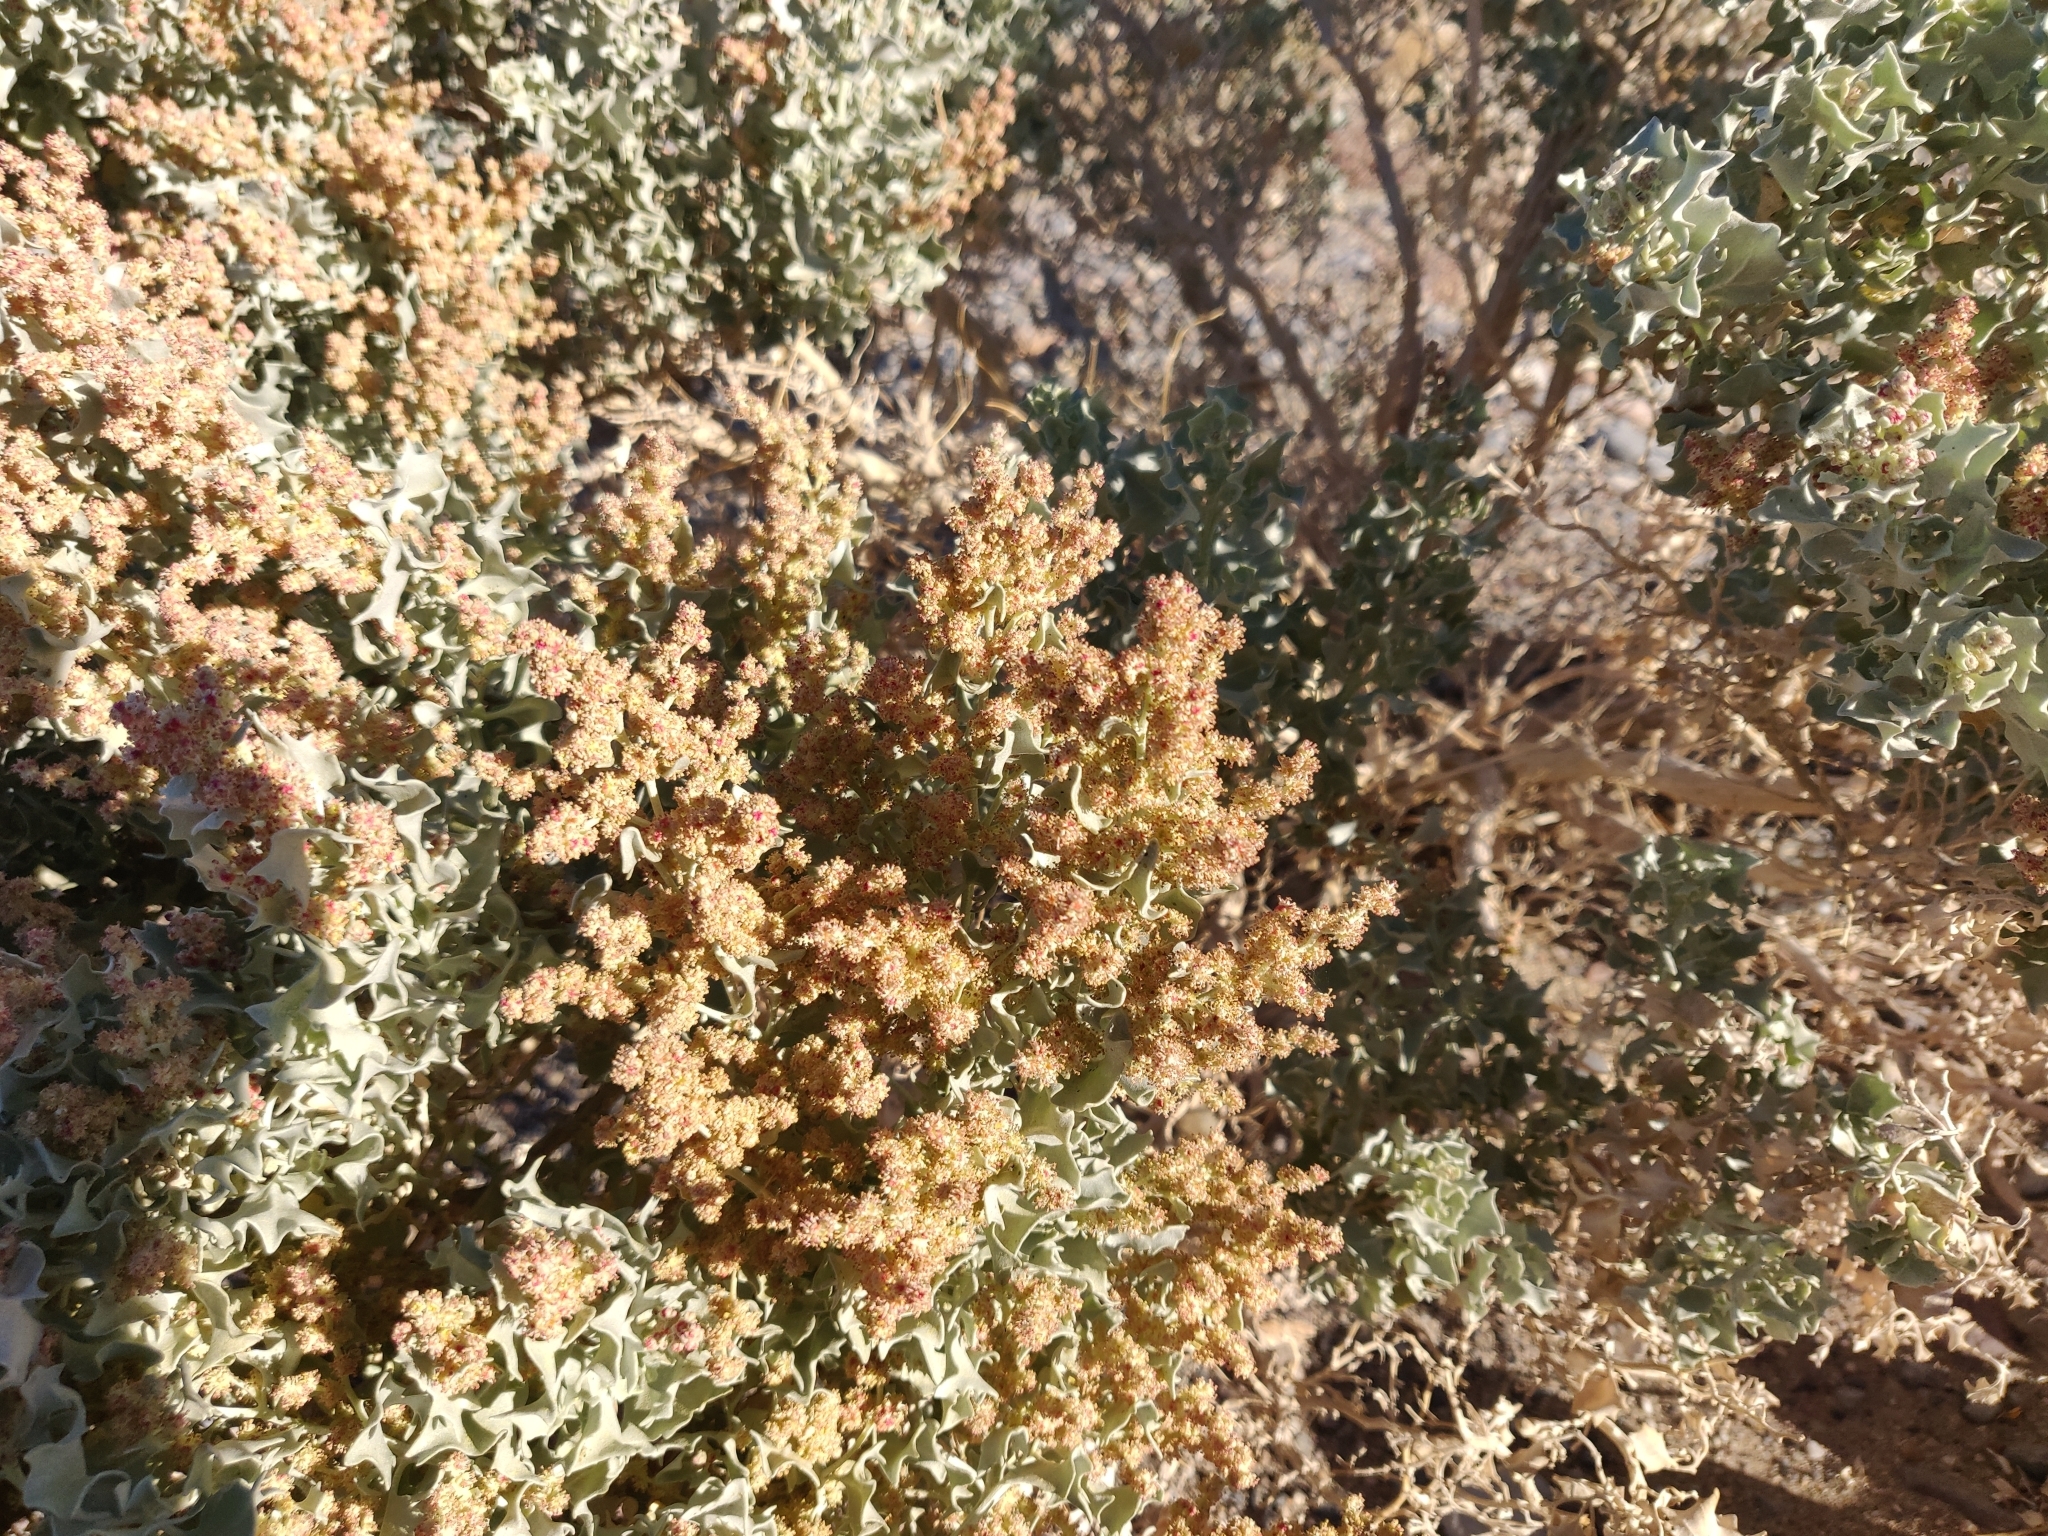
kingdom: Plantae
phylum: Tracheophyta
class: Magnoliopsida
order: Caryophyllales
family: Amaranthaceae
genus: Atriplex
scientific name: Atriplex hymenelytra
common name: Desert-holly
